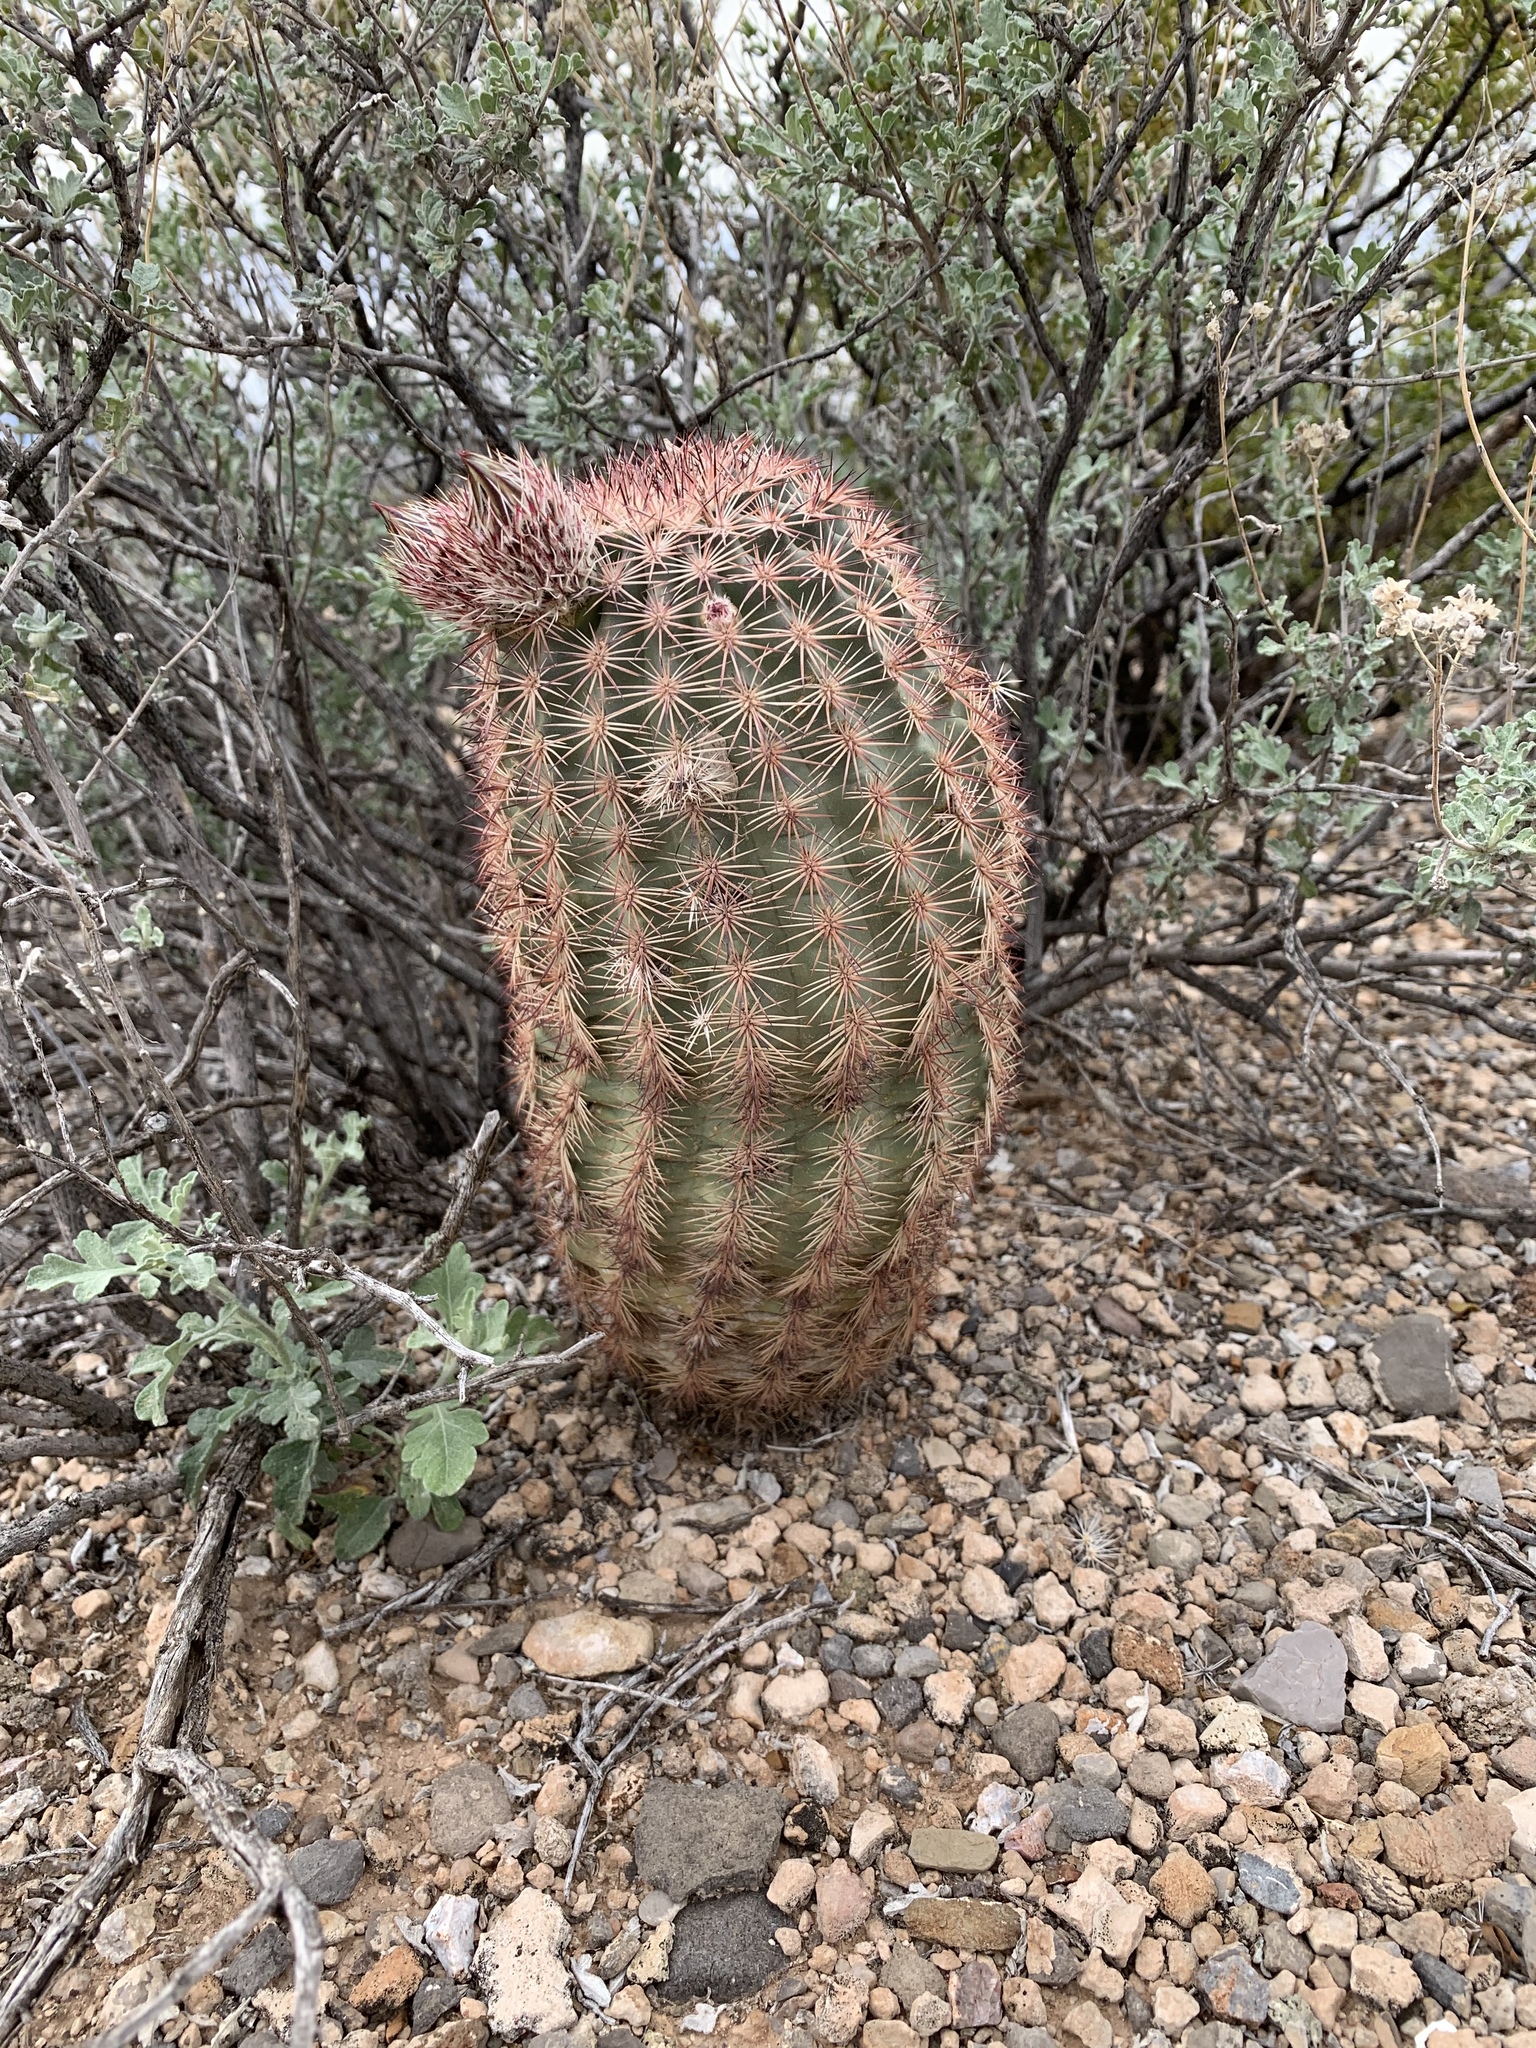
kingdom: Plantae
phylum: Tracheophyta
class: Magnoliopsida
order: Caryophyllales
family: Cactaceae
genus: Echinocereus
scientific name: Echinocereus dasyacanthus
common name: Spiny hedgehog cactus
